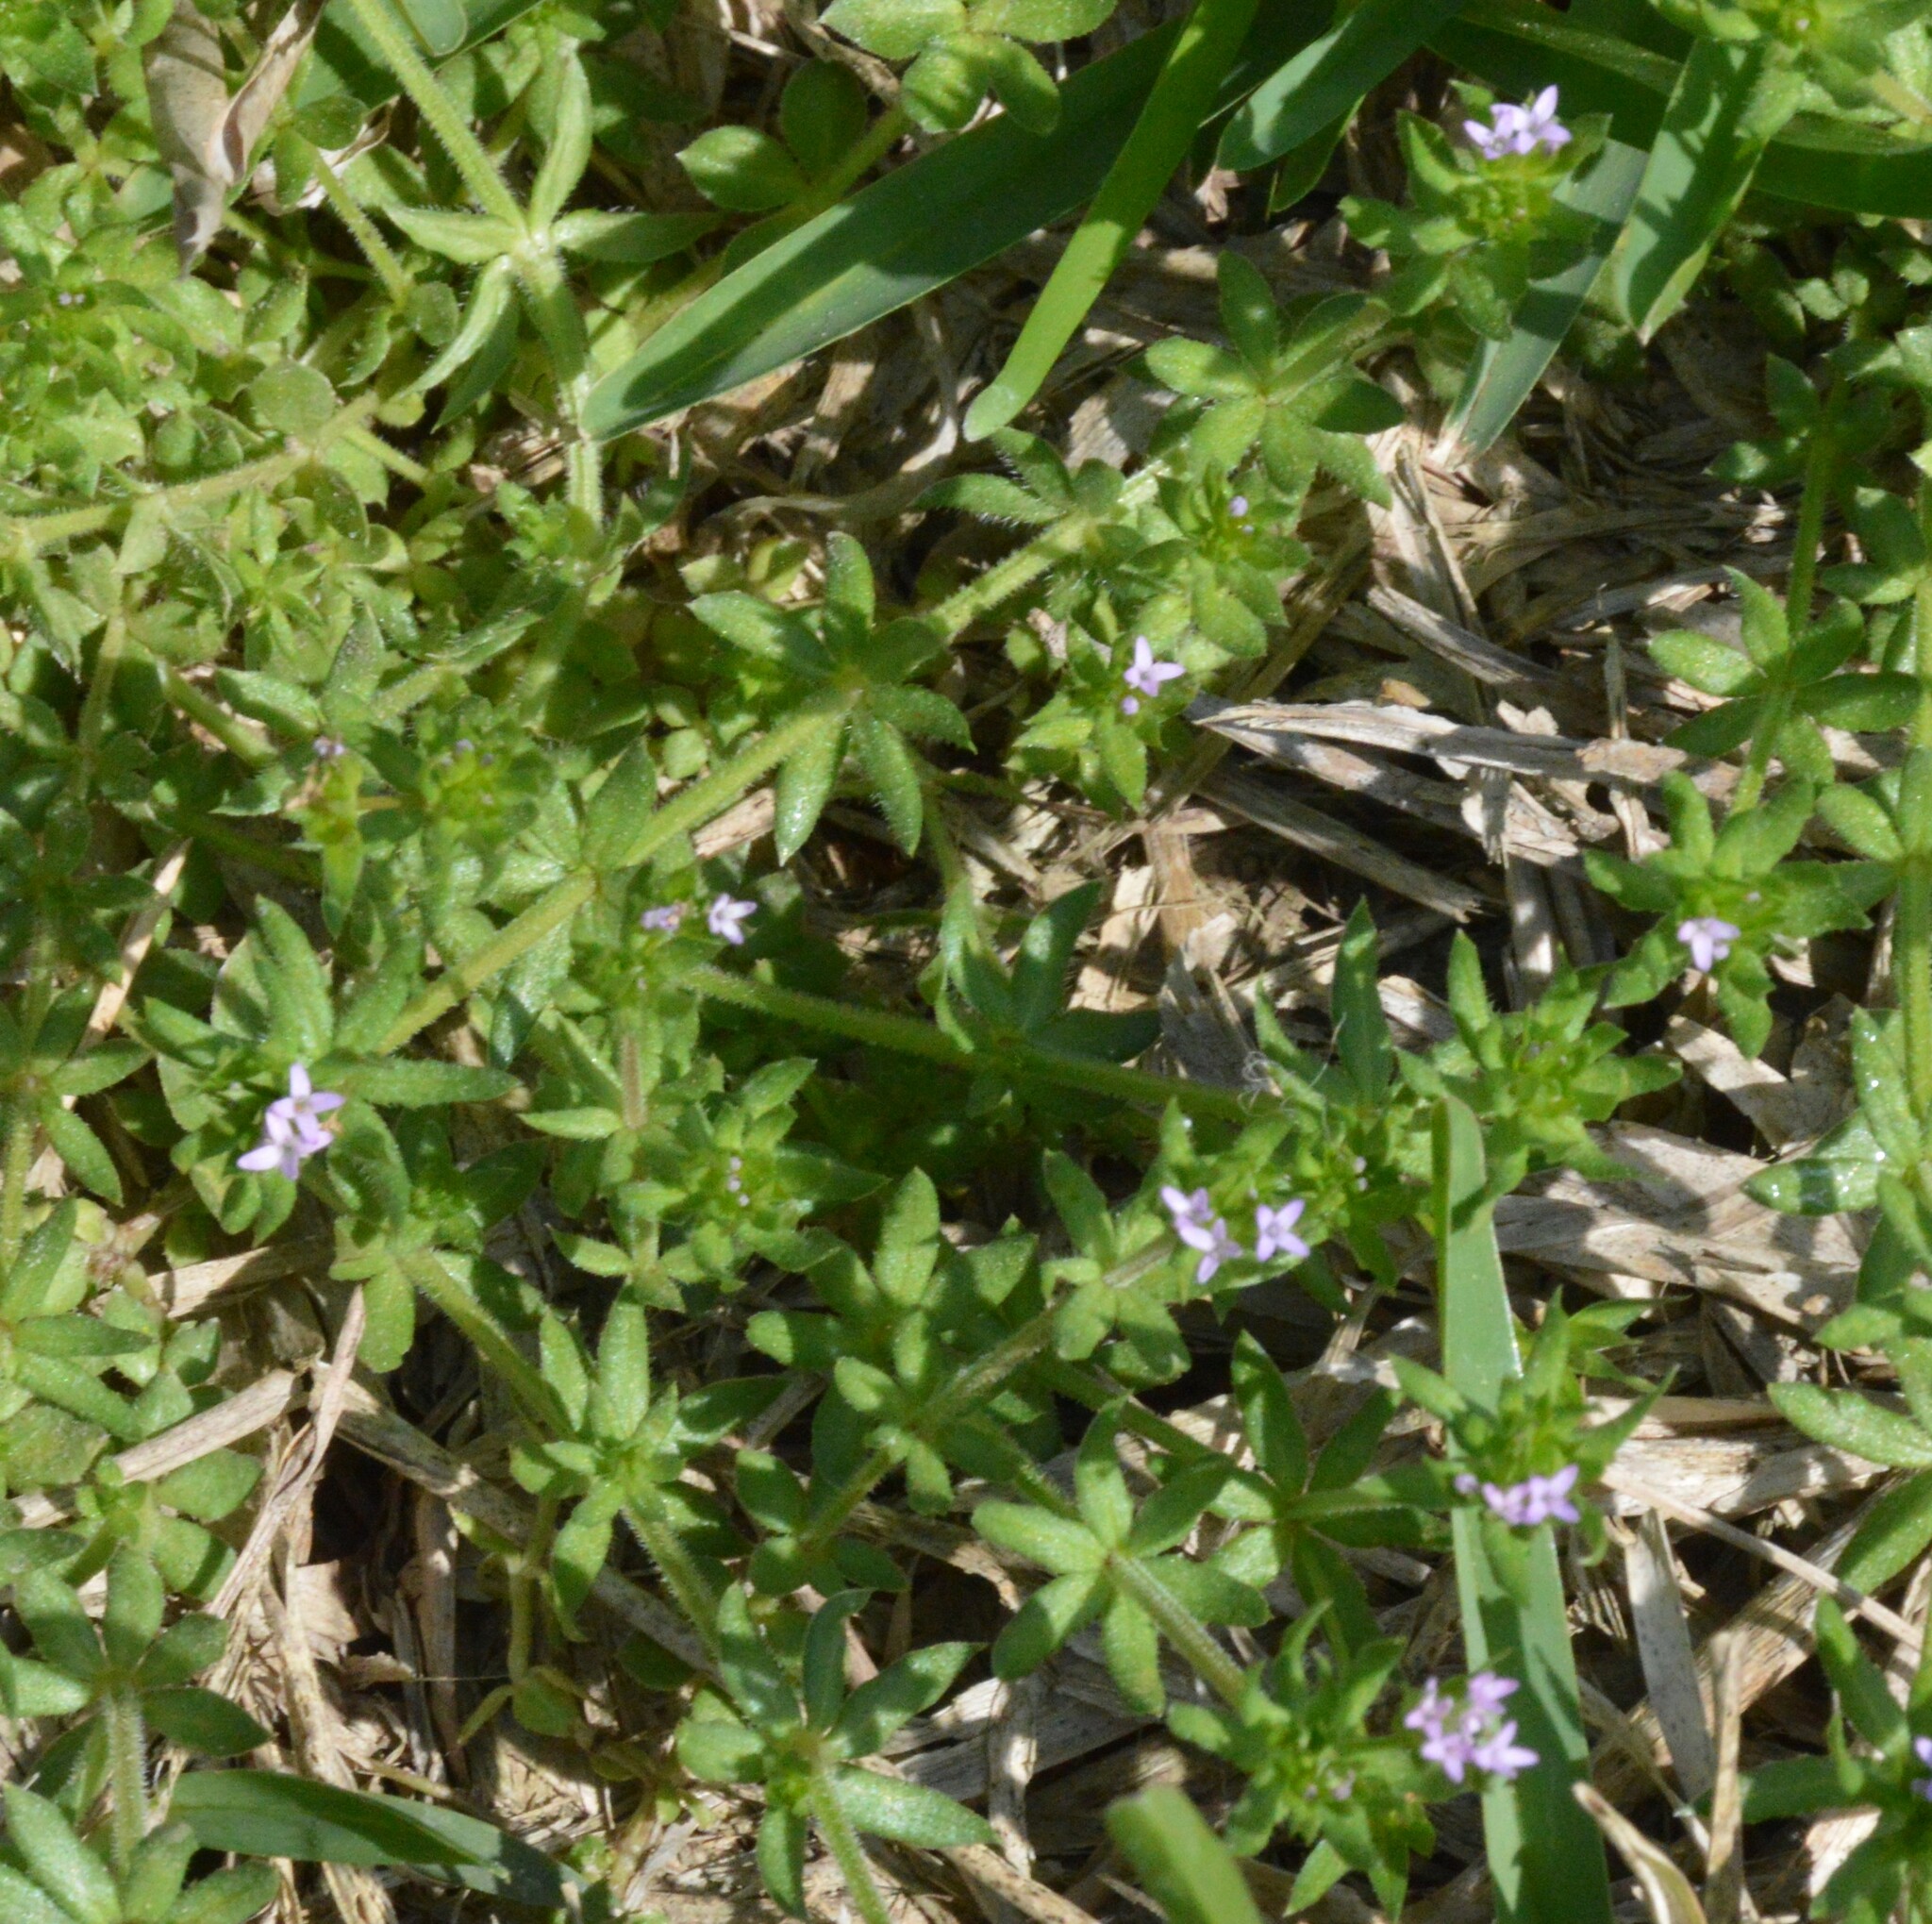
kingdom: Plantae
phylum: Tracheophyta
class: Magnoliopsida
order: Gentianales
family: Rubiaceae
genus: Sherardia
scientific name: Sherardia arvensis
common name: Field madder
